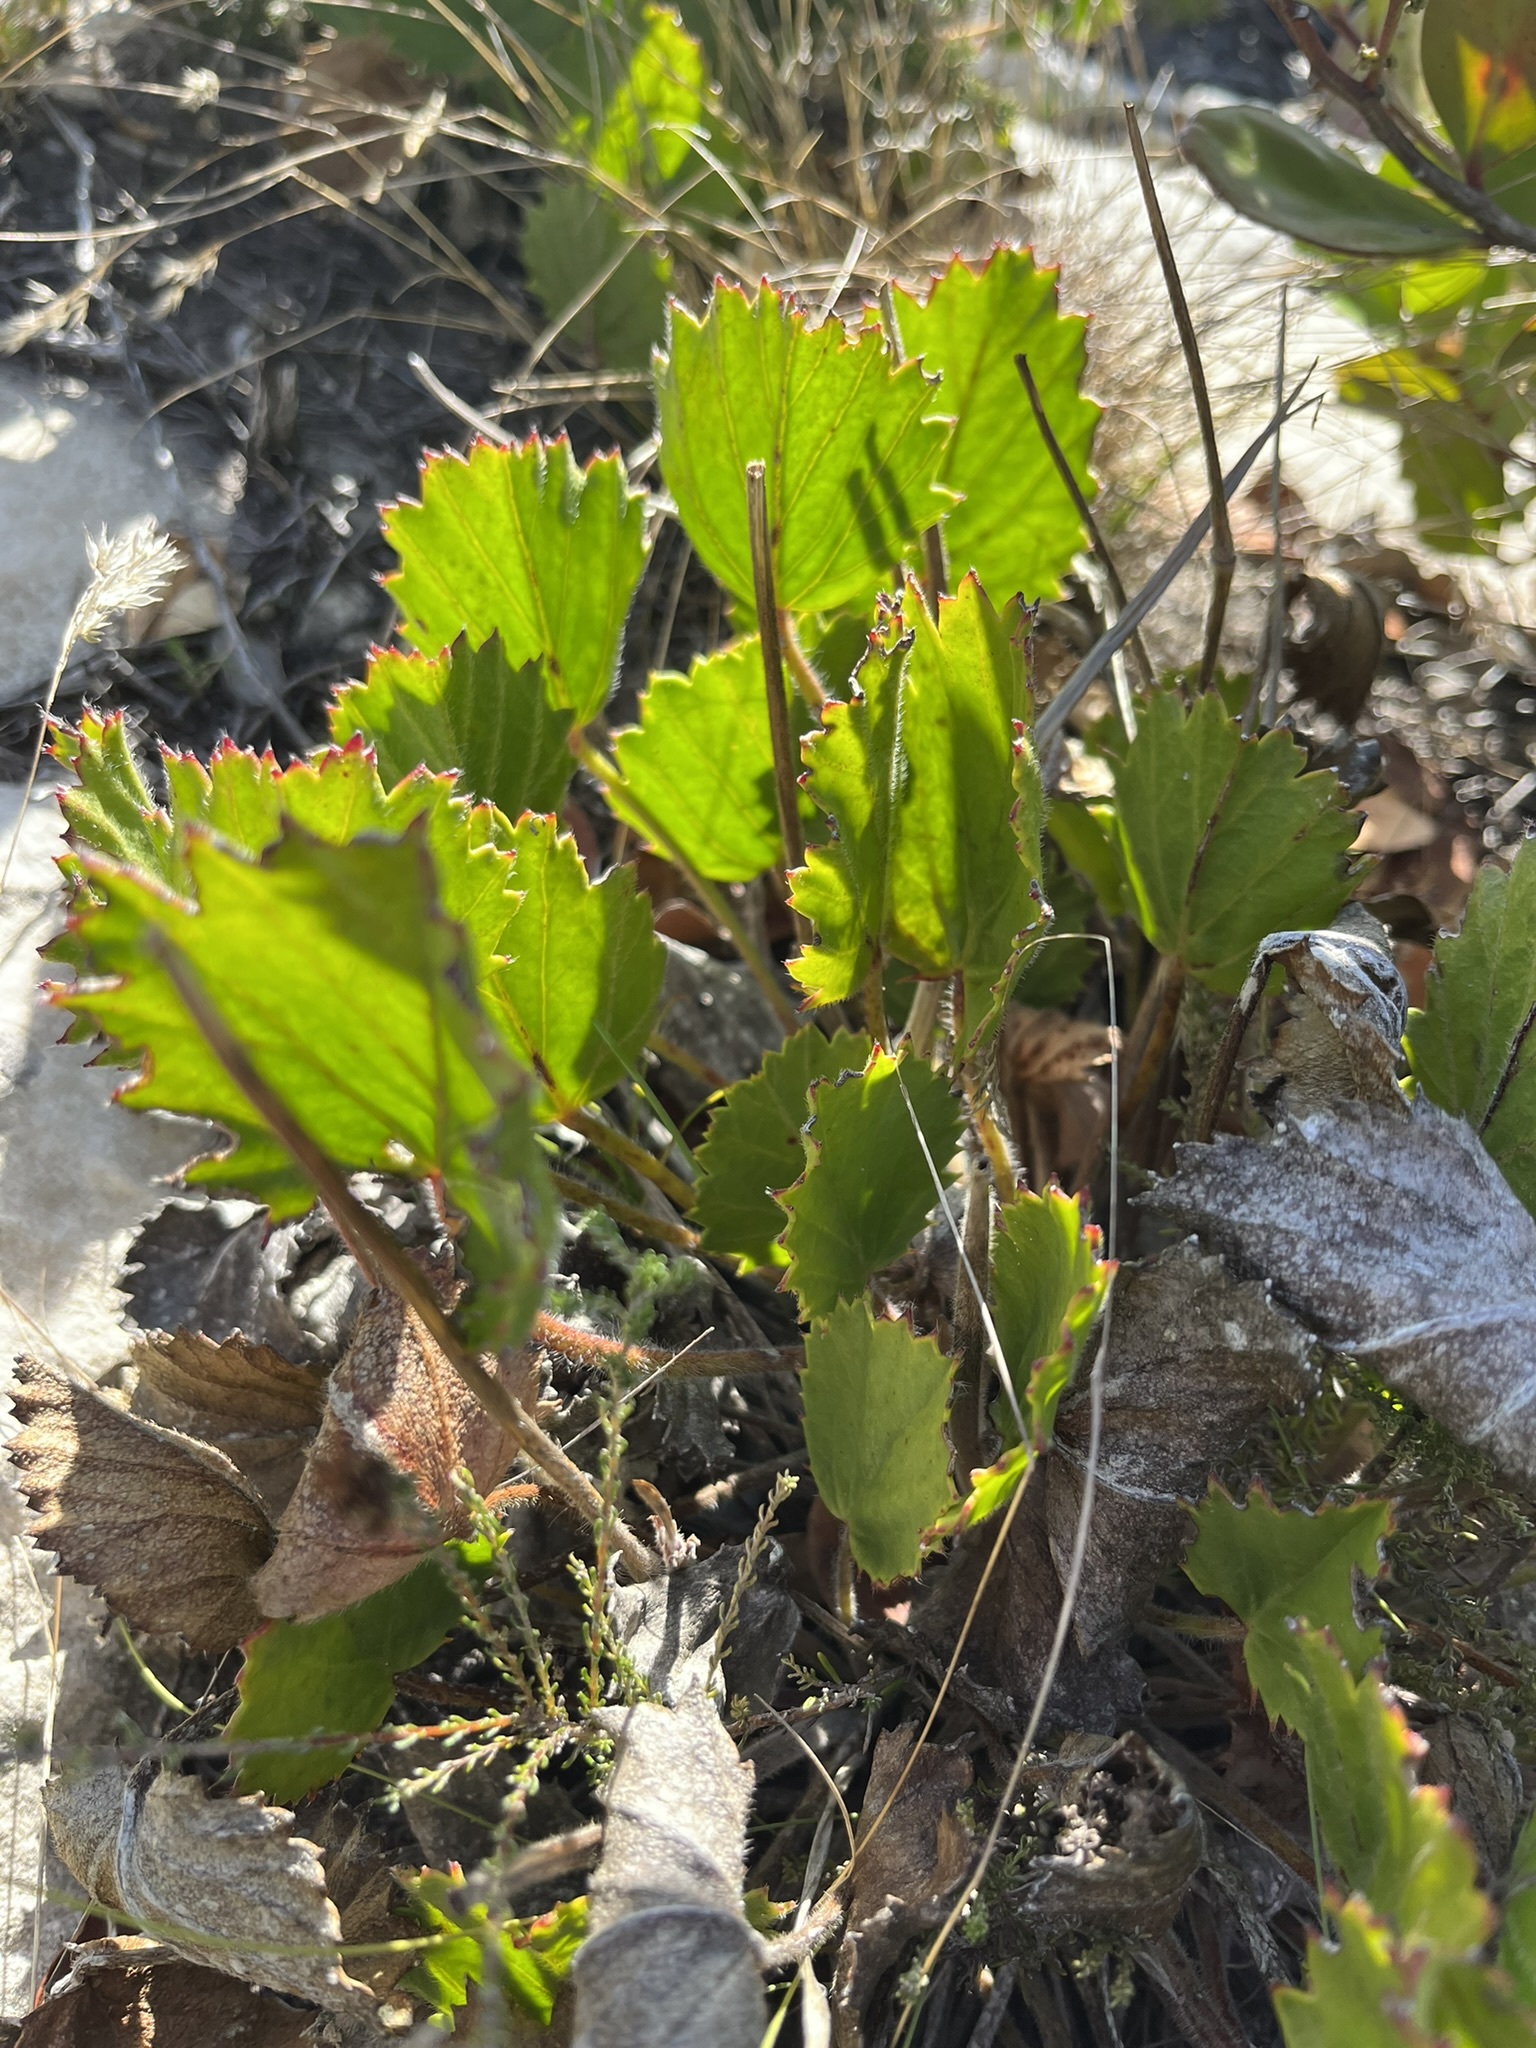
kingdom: Plantae
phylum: Tracheophyta
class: Magnoliopsida
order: Geraniales
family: Geraniaceae
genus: Pelargonium
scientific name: Pelargonium elegans
